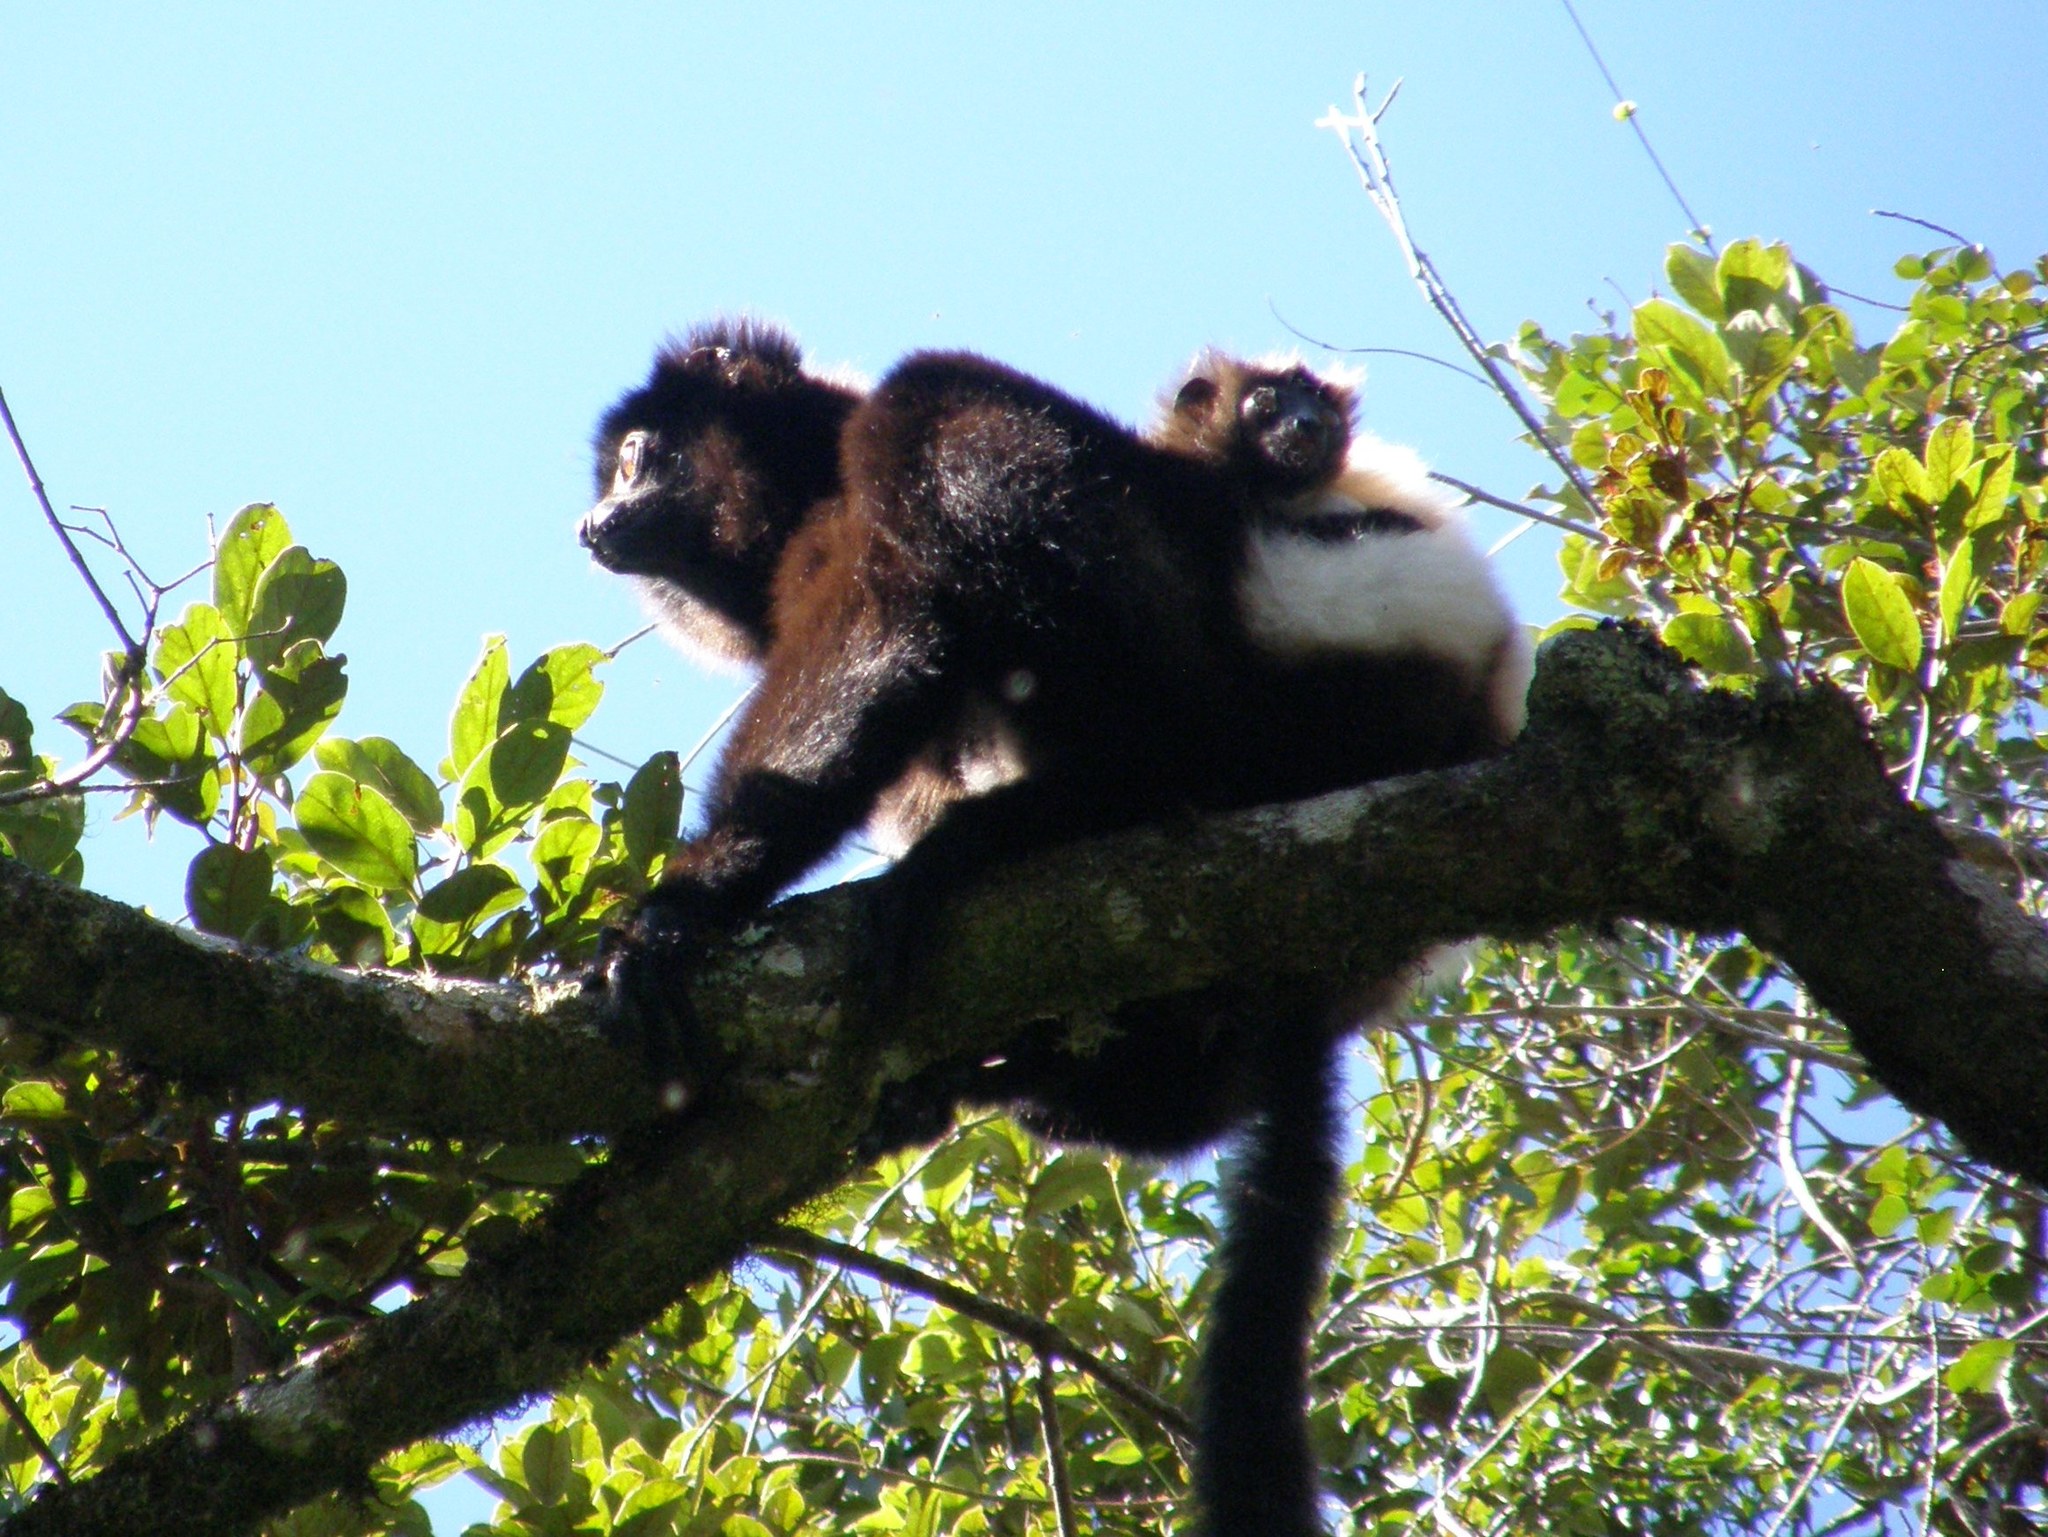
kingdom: Animalia
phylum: Chordata
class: Mammalia
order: Primates
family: Indriidae
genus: Propithecus
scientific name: Propithecus edwardsi
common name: Milne-edwards’s simpona
